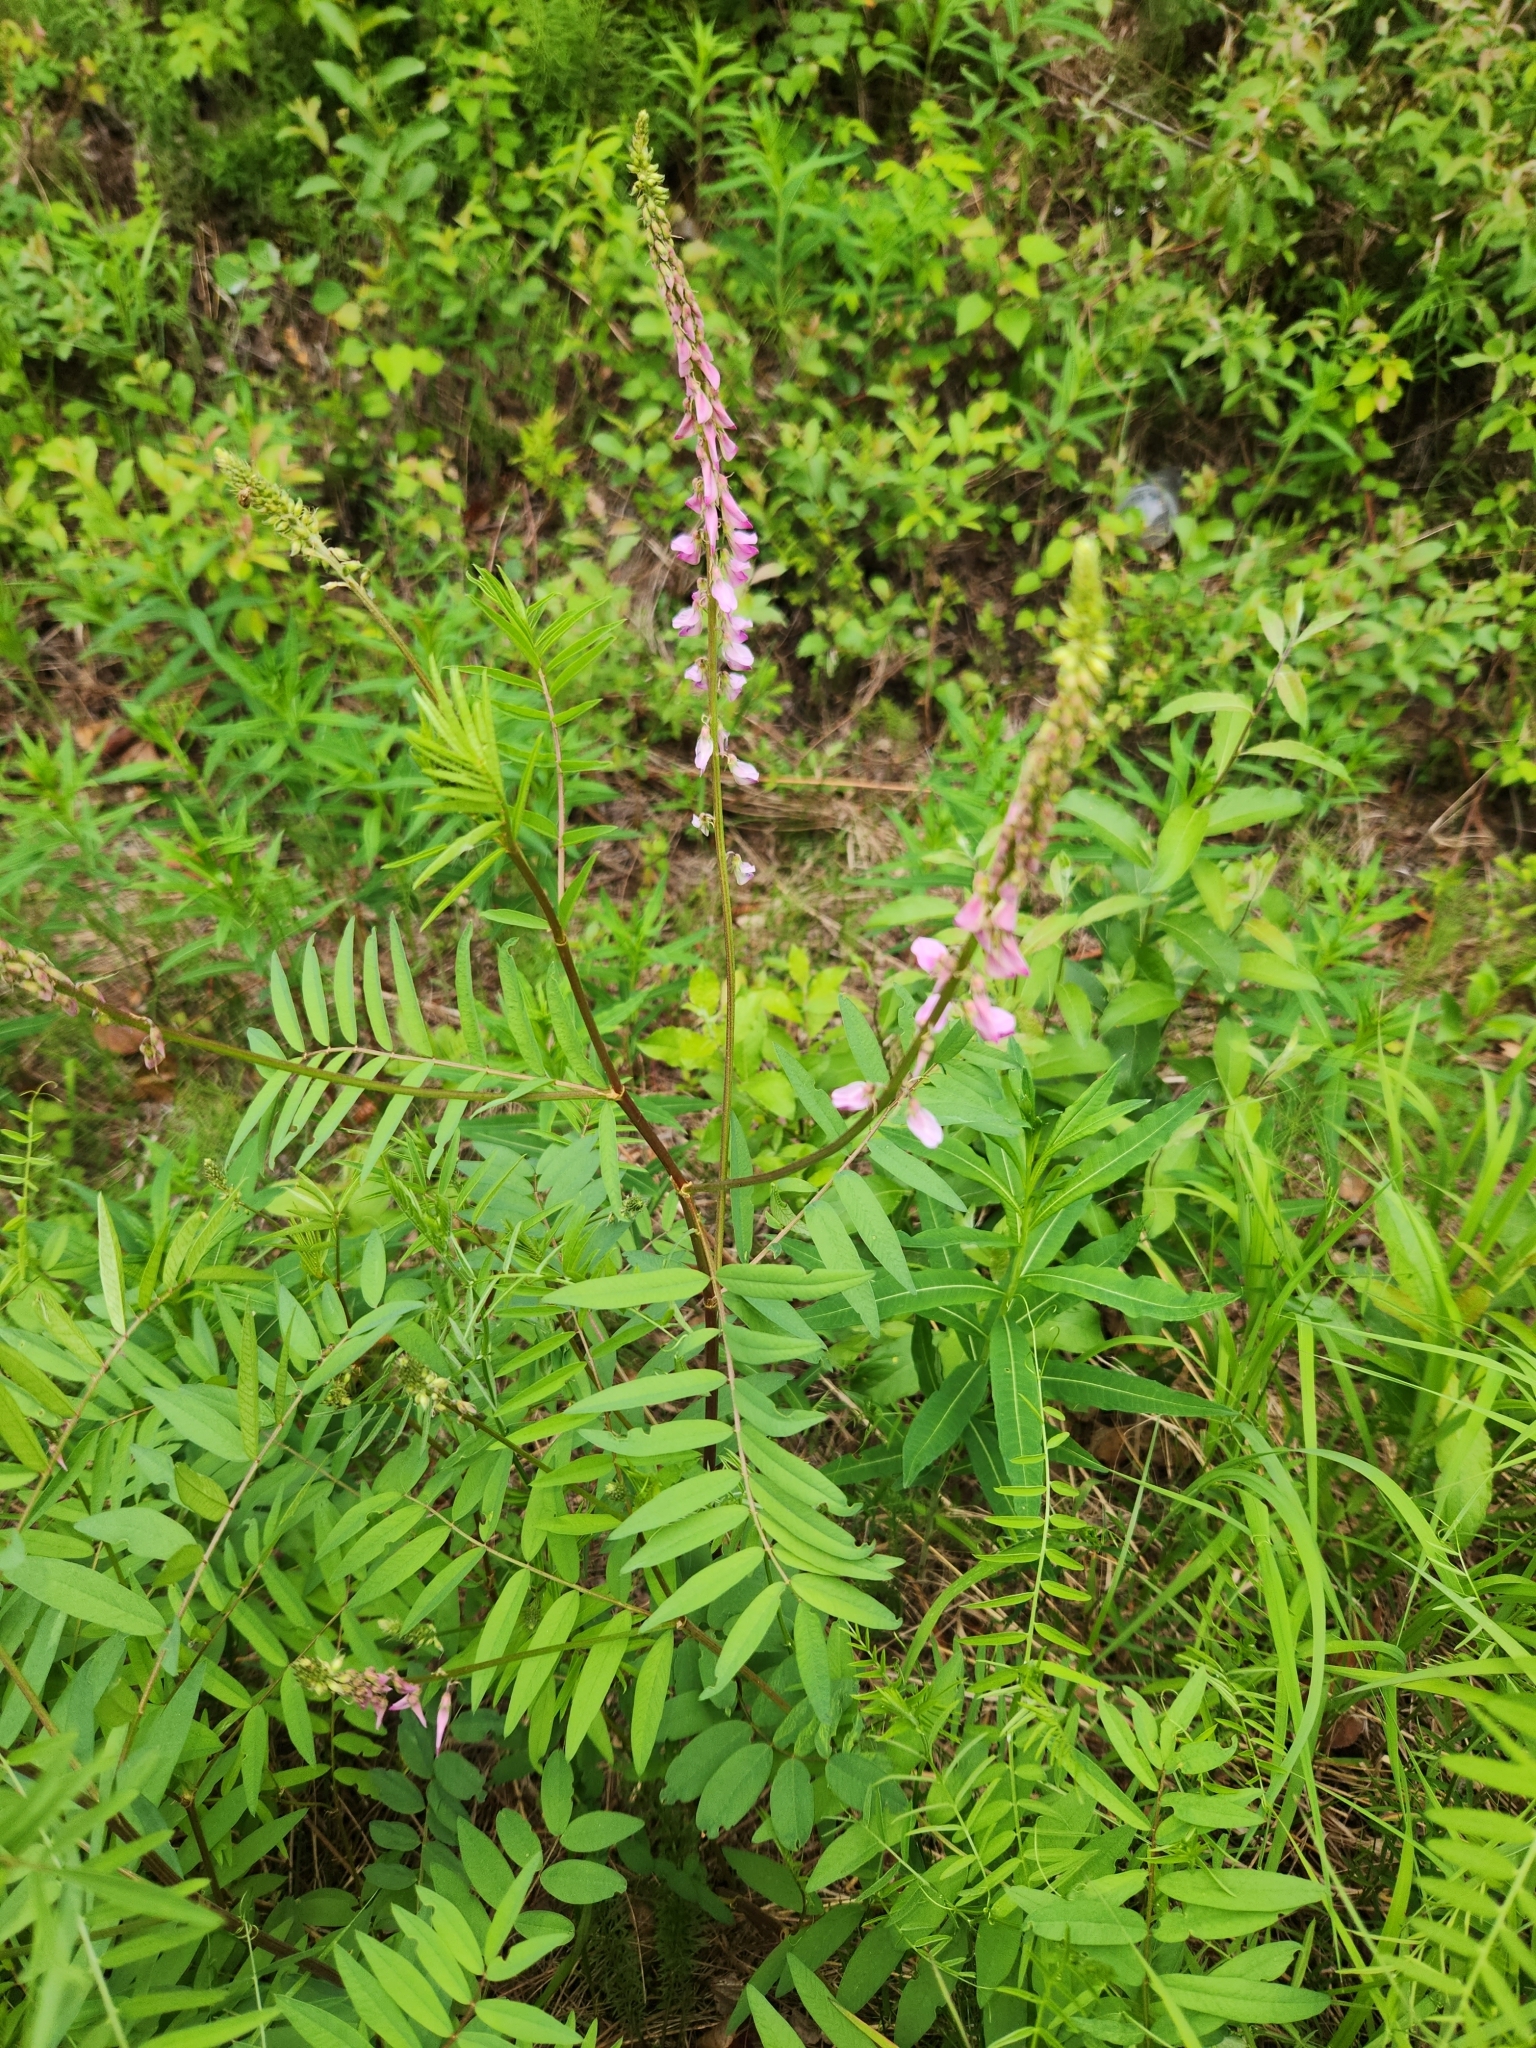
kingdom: Plantae
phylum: Tracheophyta
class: Magnoliopsida
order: Fabales
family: Fabaceae
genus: Hedysarum
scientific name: Hedysarum alpinum
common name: Alpine sweet-vetch
